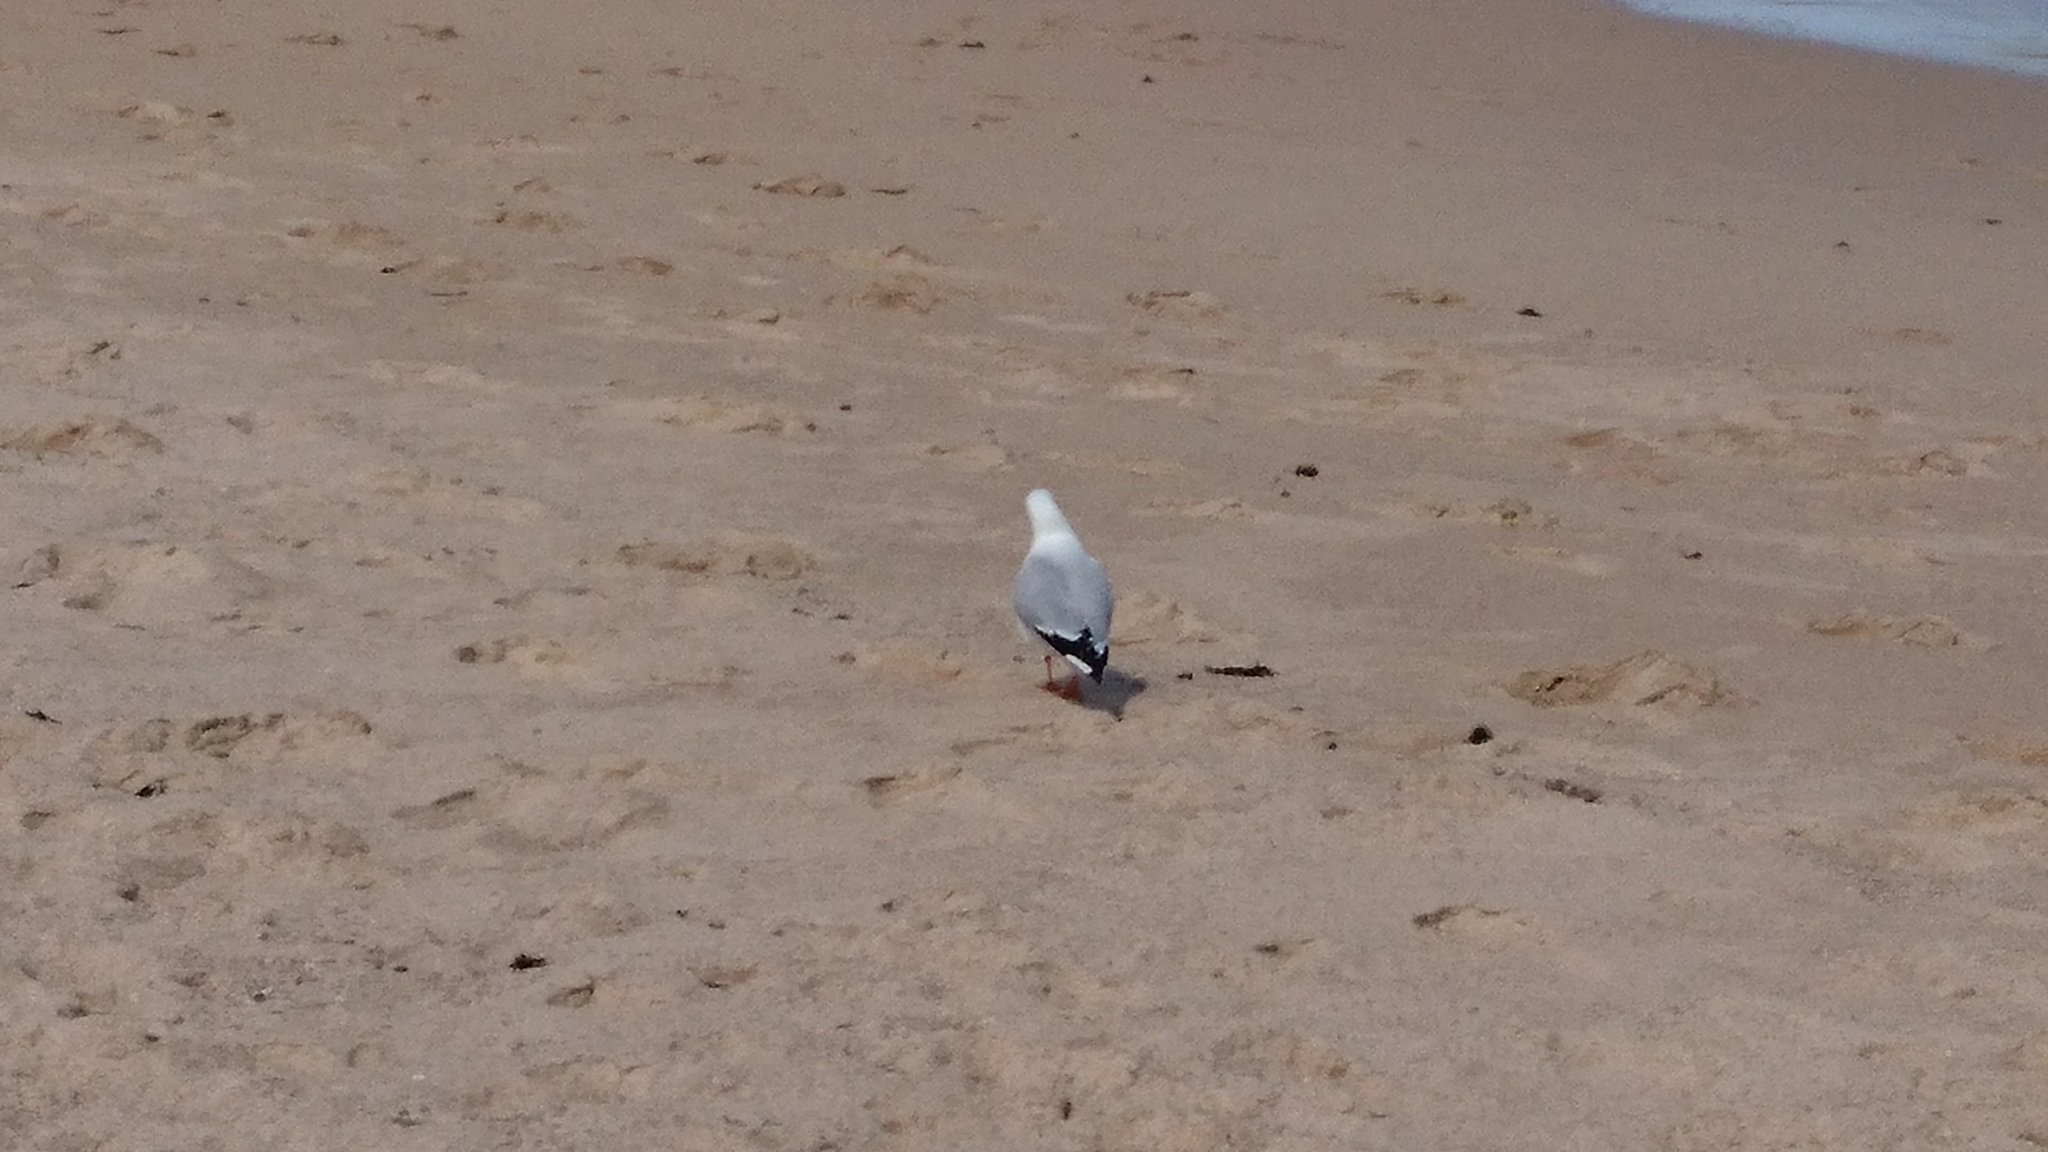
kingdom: Animalia
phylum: Chordata
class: Aves
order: Charadriiformes
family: Laridae
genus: Chroicocephalus
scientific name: Chroicocephalus novaehollandiae
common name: Silver gull
